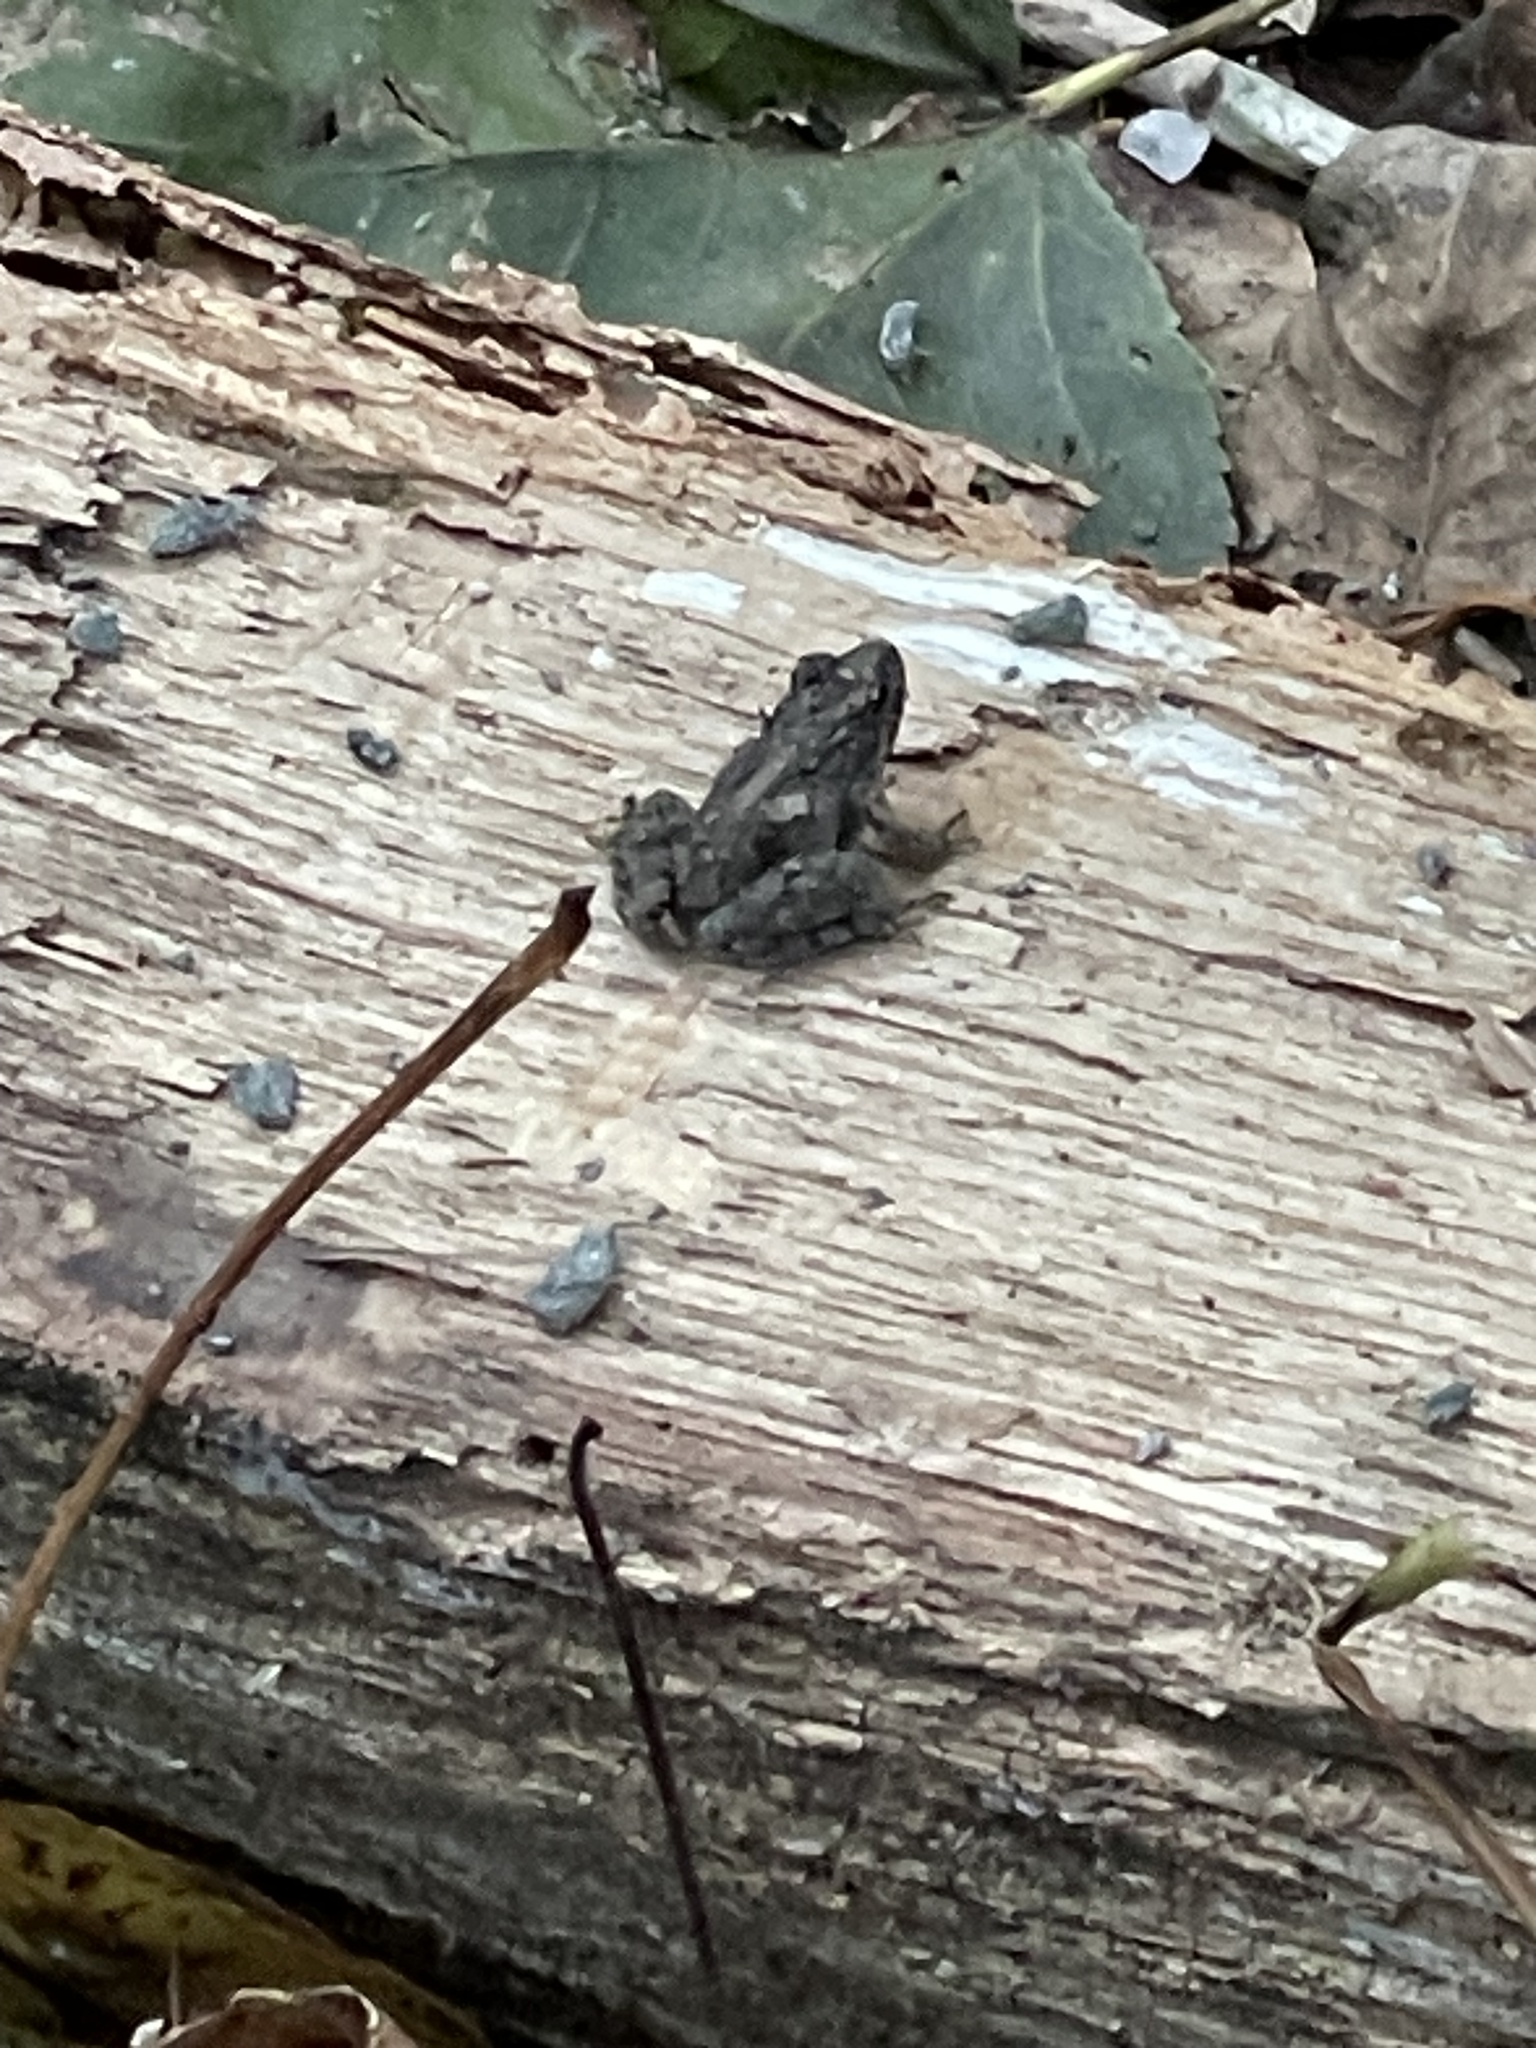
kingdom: Animalia
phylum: Chordata
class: Amphibia
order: Anura
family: Hylidae
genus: Acris
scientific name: Acris crepitans
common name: Northern cricket frog
